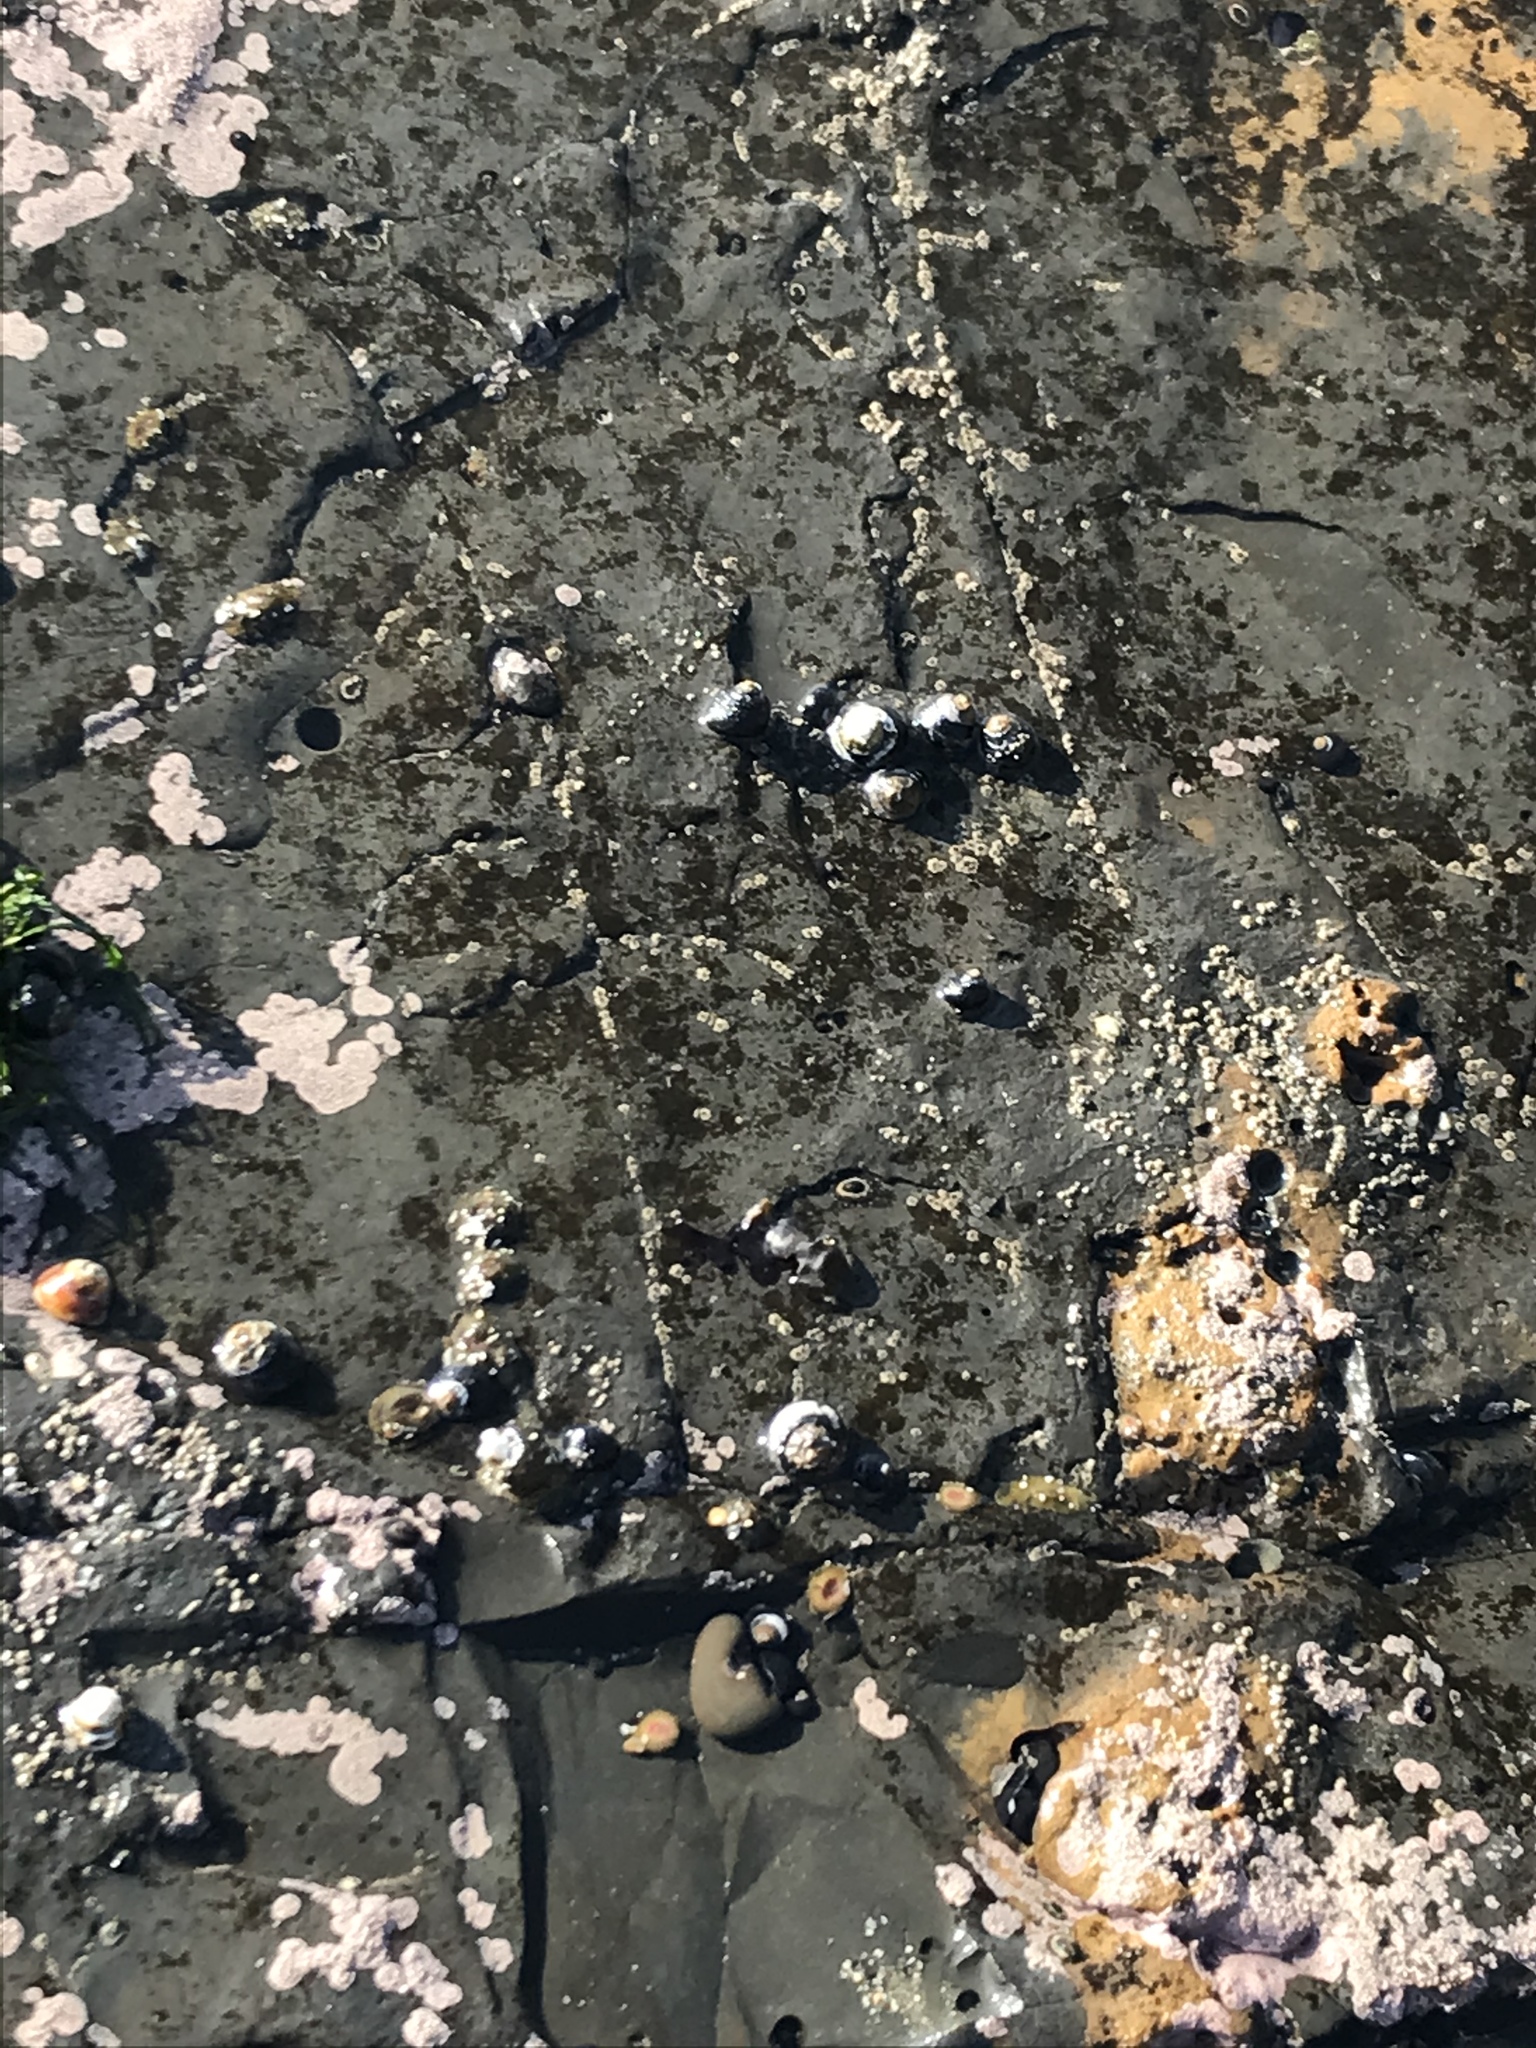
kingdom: Animalia
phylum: Mollusca
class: Gastropoda
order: Trochida
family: Tegulidae
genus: Tegula
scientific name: Tegula funebralis
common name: Black tegula
